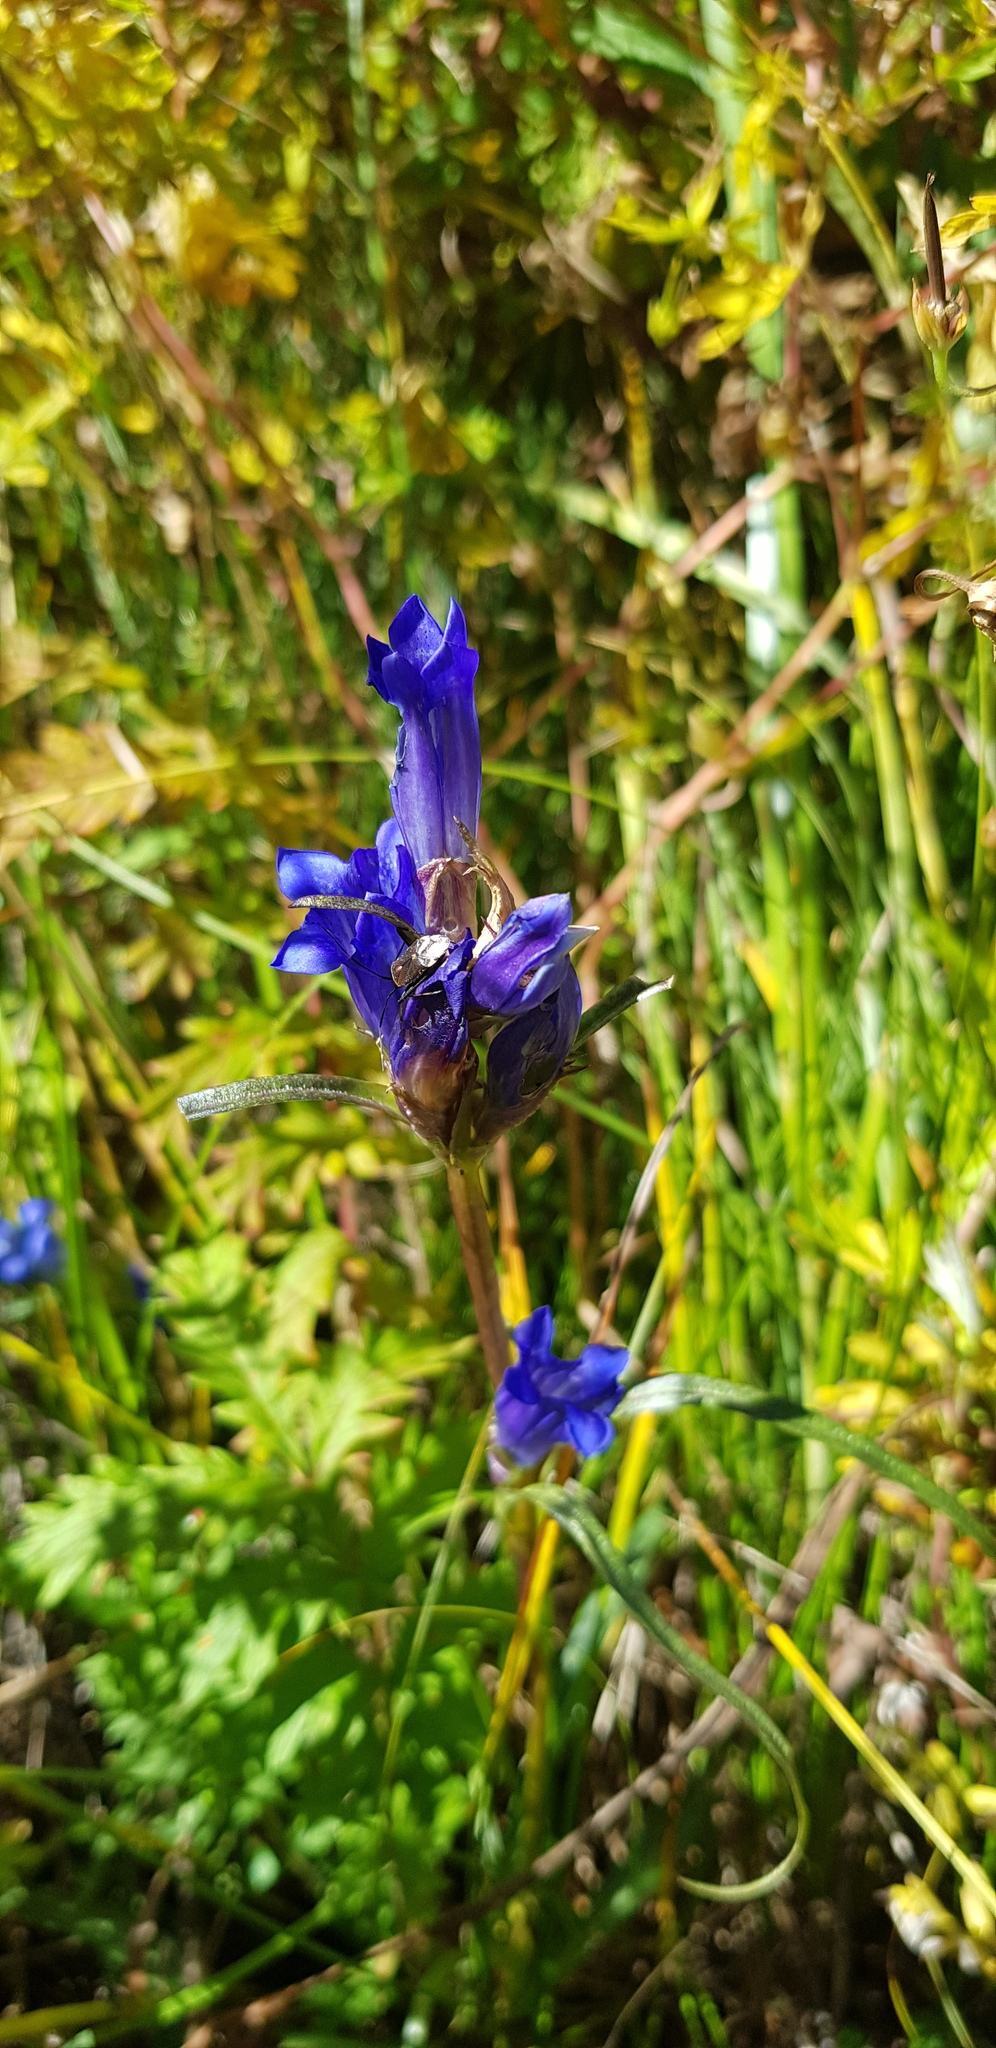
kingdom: Plantae
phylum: Tracheophyta
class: Magnoliopsida
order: Gentianales
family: Gentianaceae
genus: Gentiana
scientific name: Gentiana decumbens
